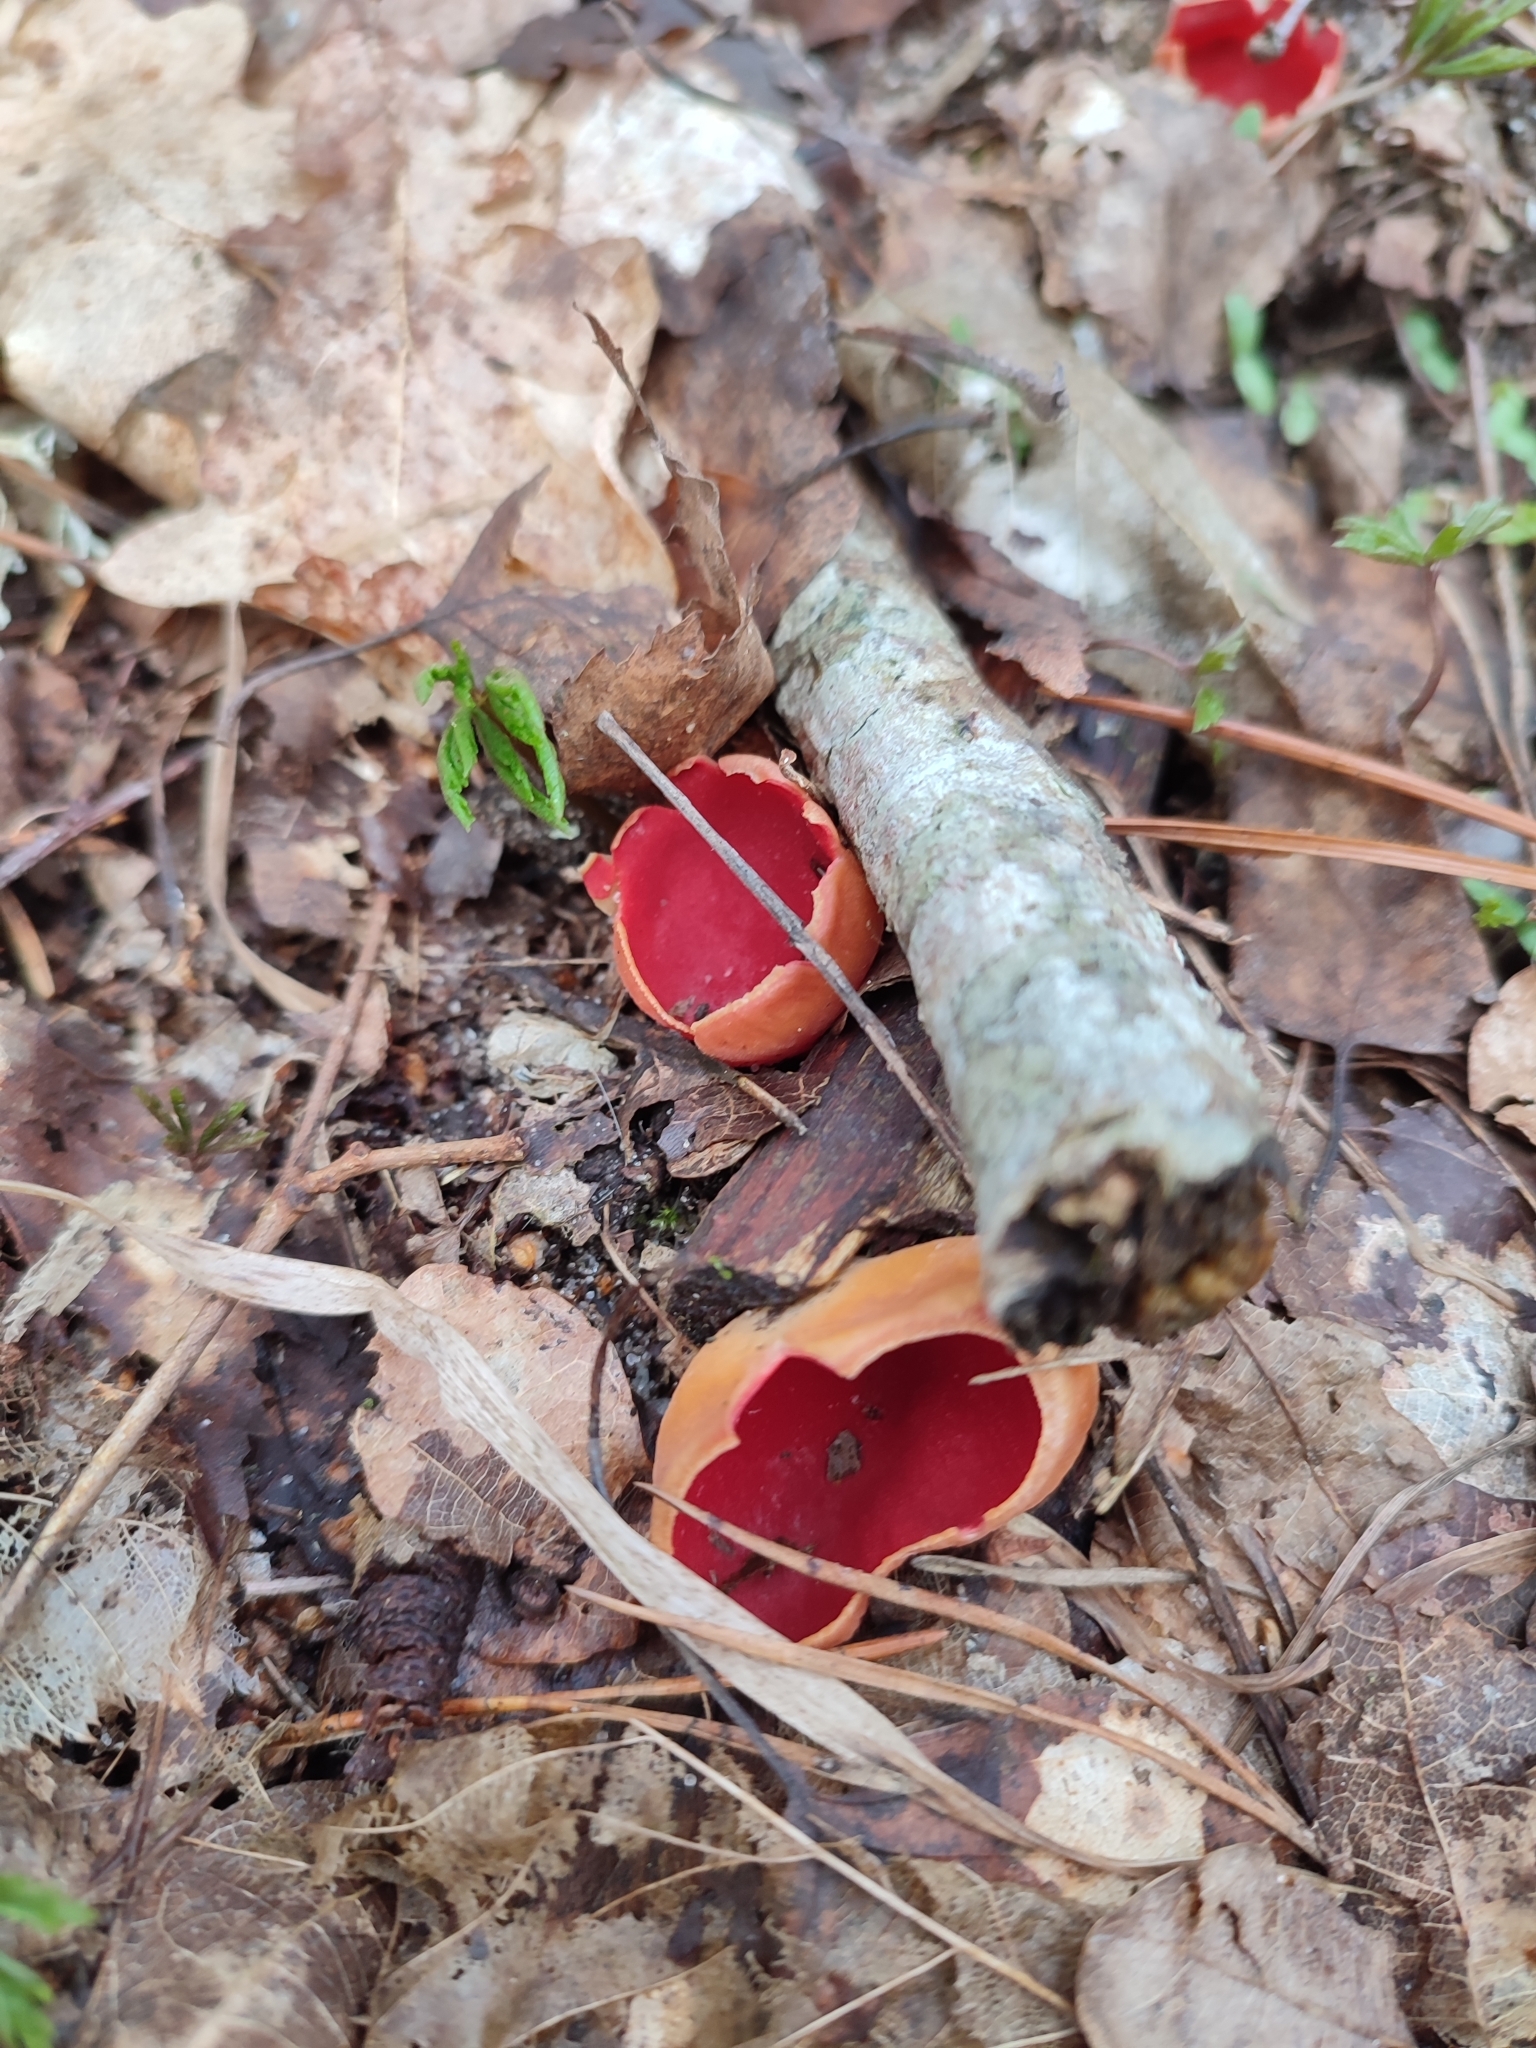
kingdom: Fungi
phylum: Ascomycota
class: Pezizomycetes
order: Pezizales
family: Sarcoscyphaceae
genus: Sarcoscypha
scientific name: Sarcoscypha
